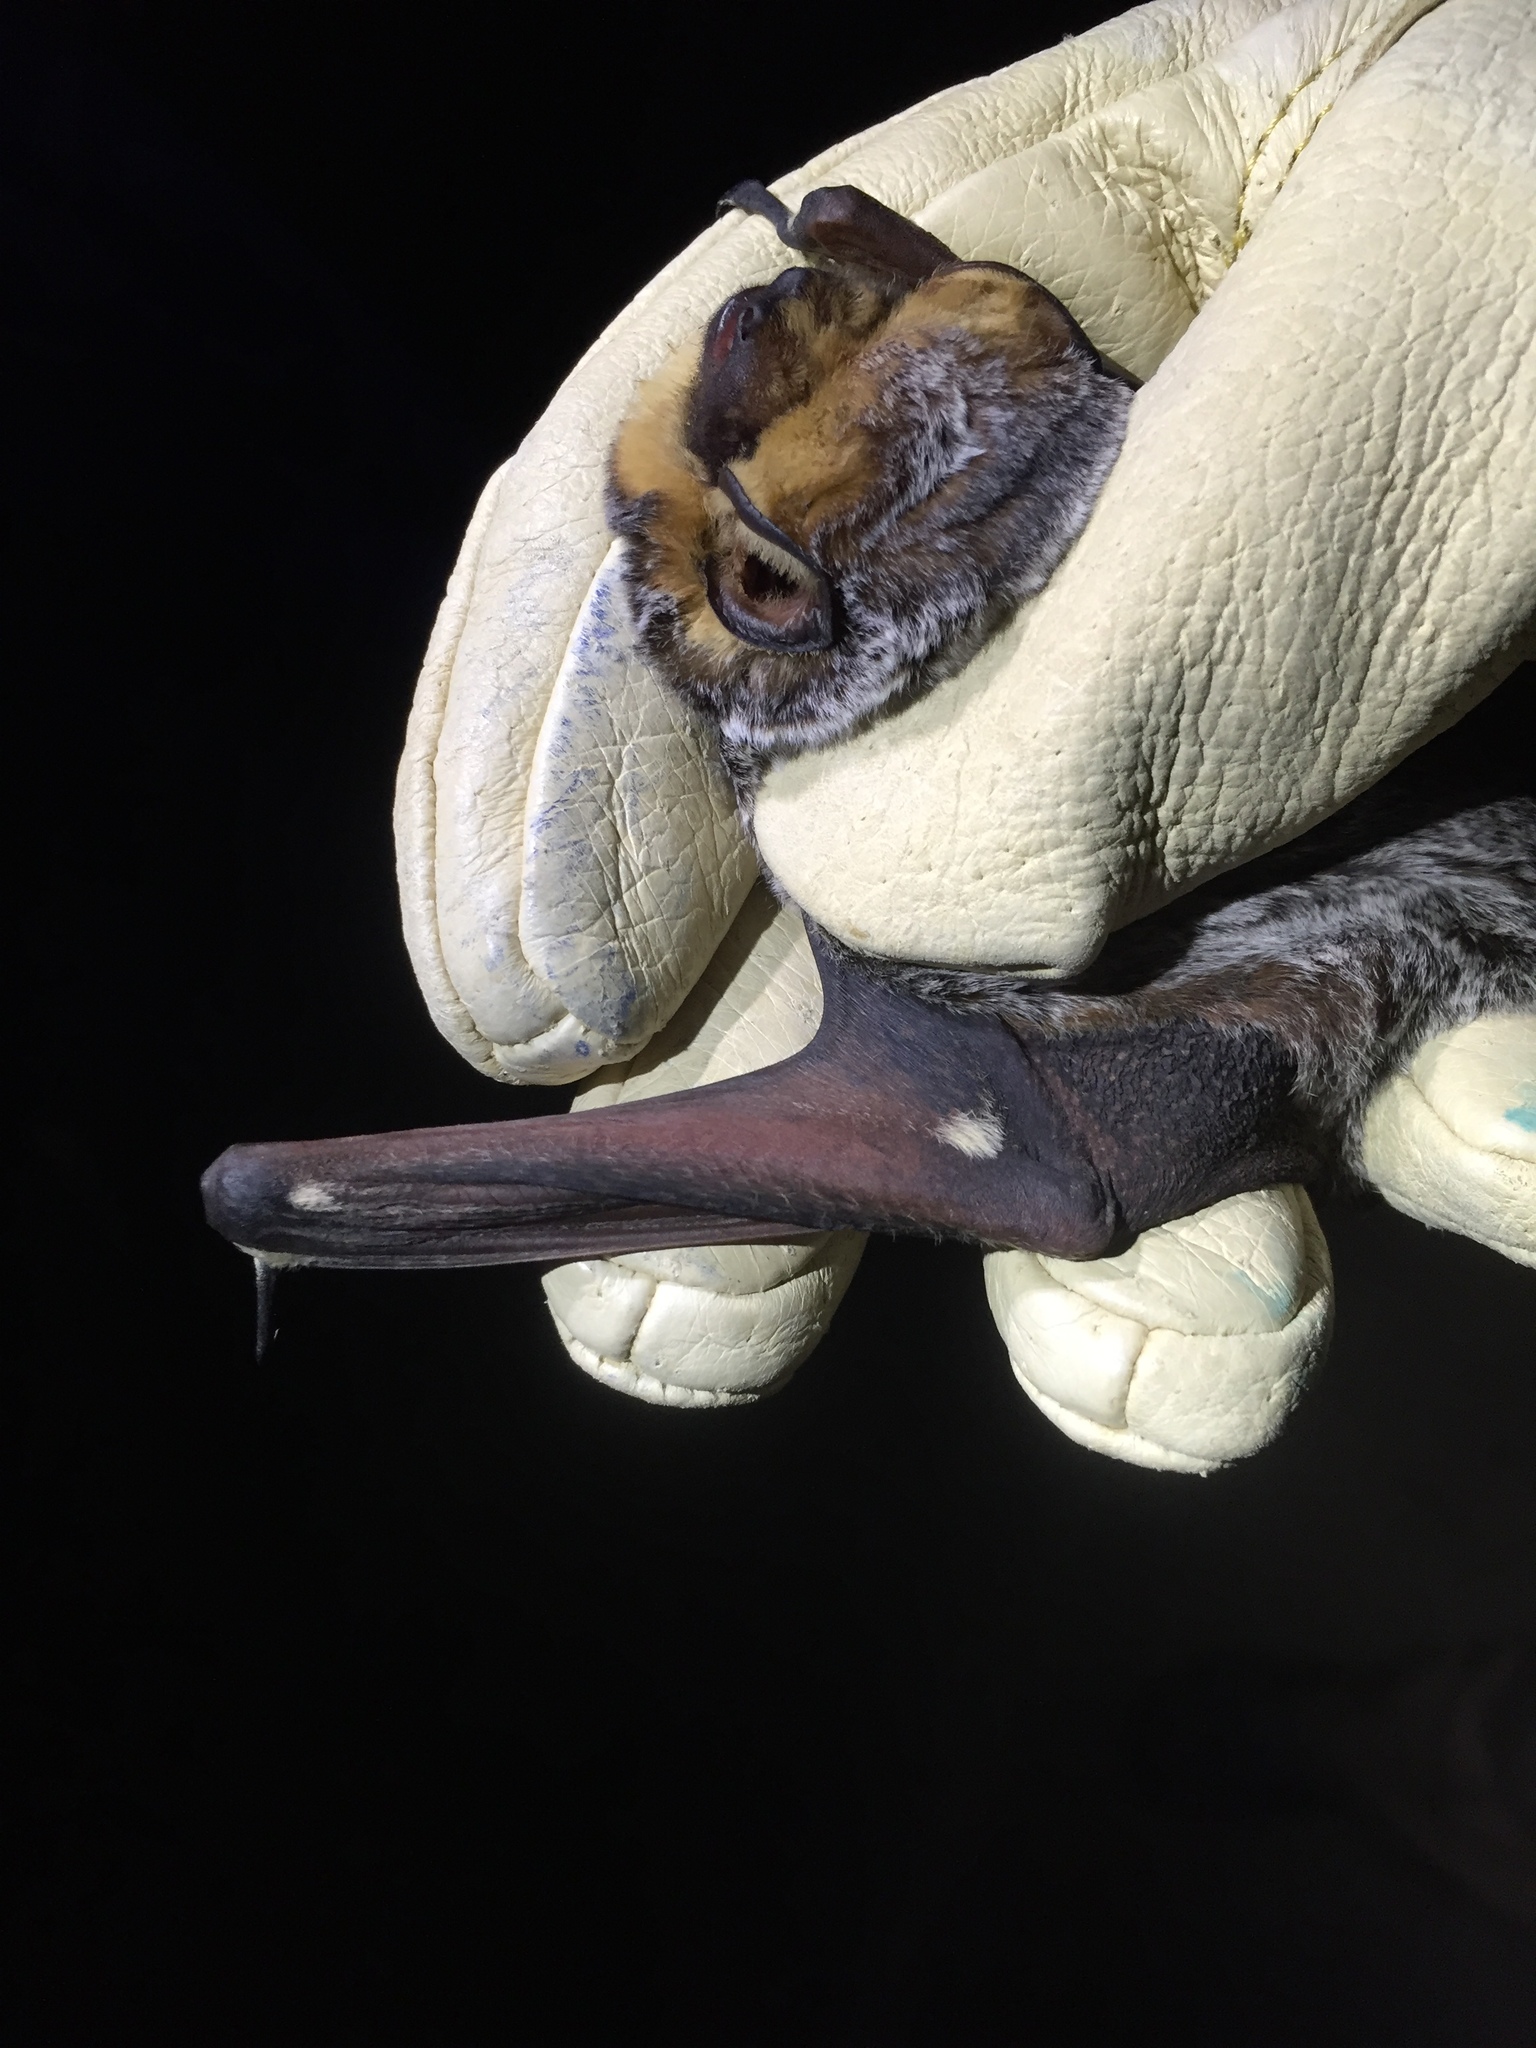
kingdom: Animalia
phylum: Chordata
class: Mammalia
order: Chiroptera
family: Vespertilionidae
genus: Aeorestes
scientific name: Aeorestes cinereus
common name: North american hoary bat
